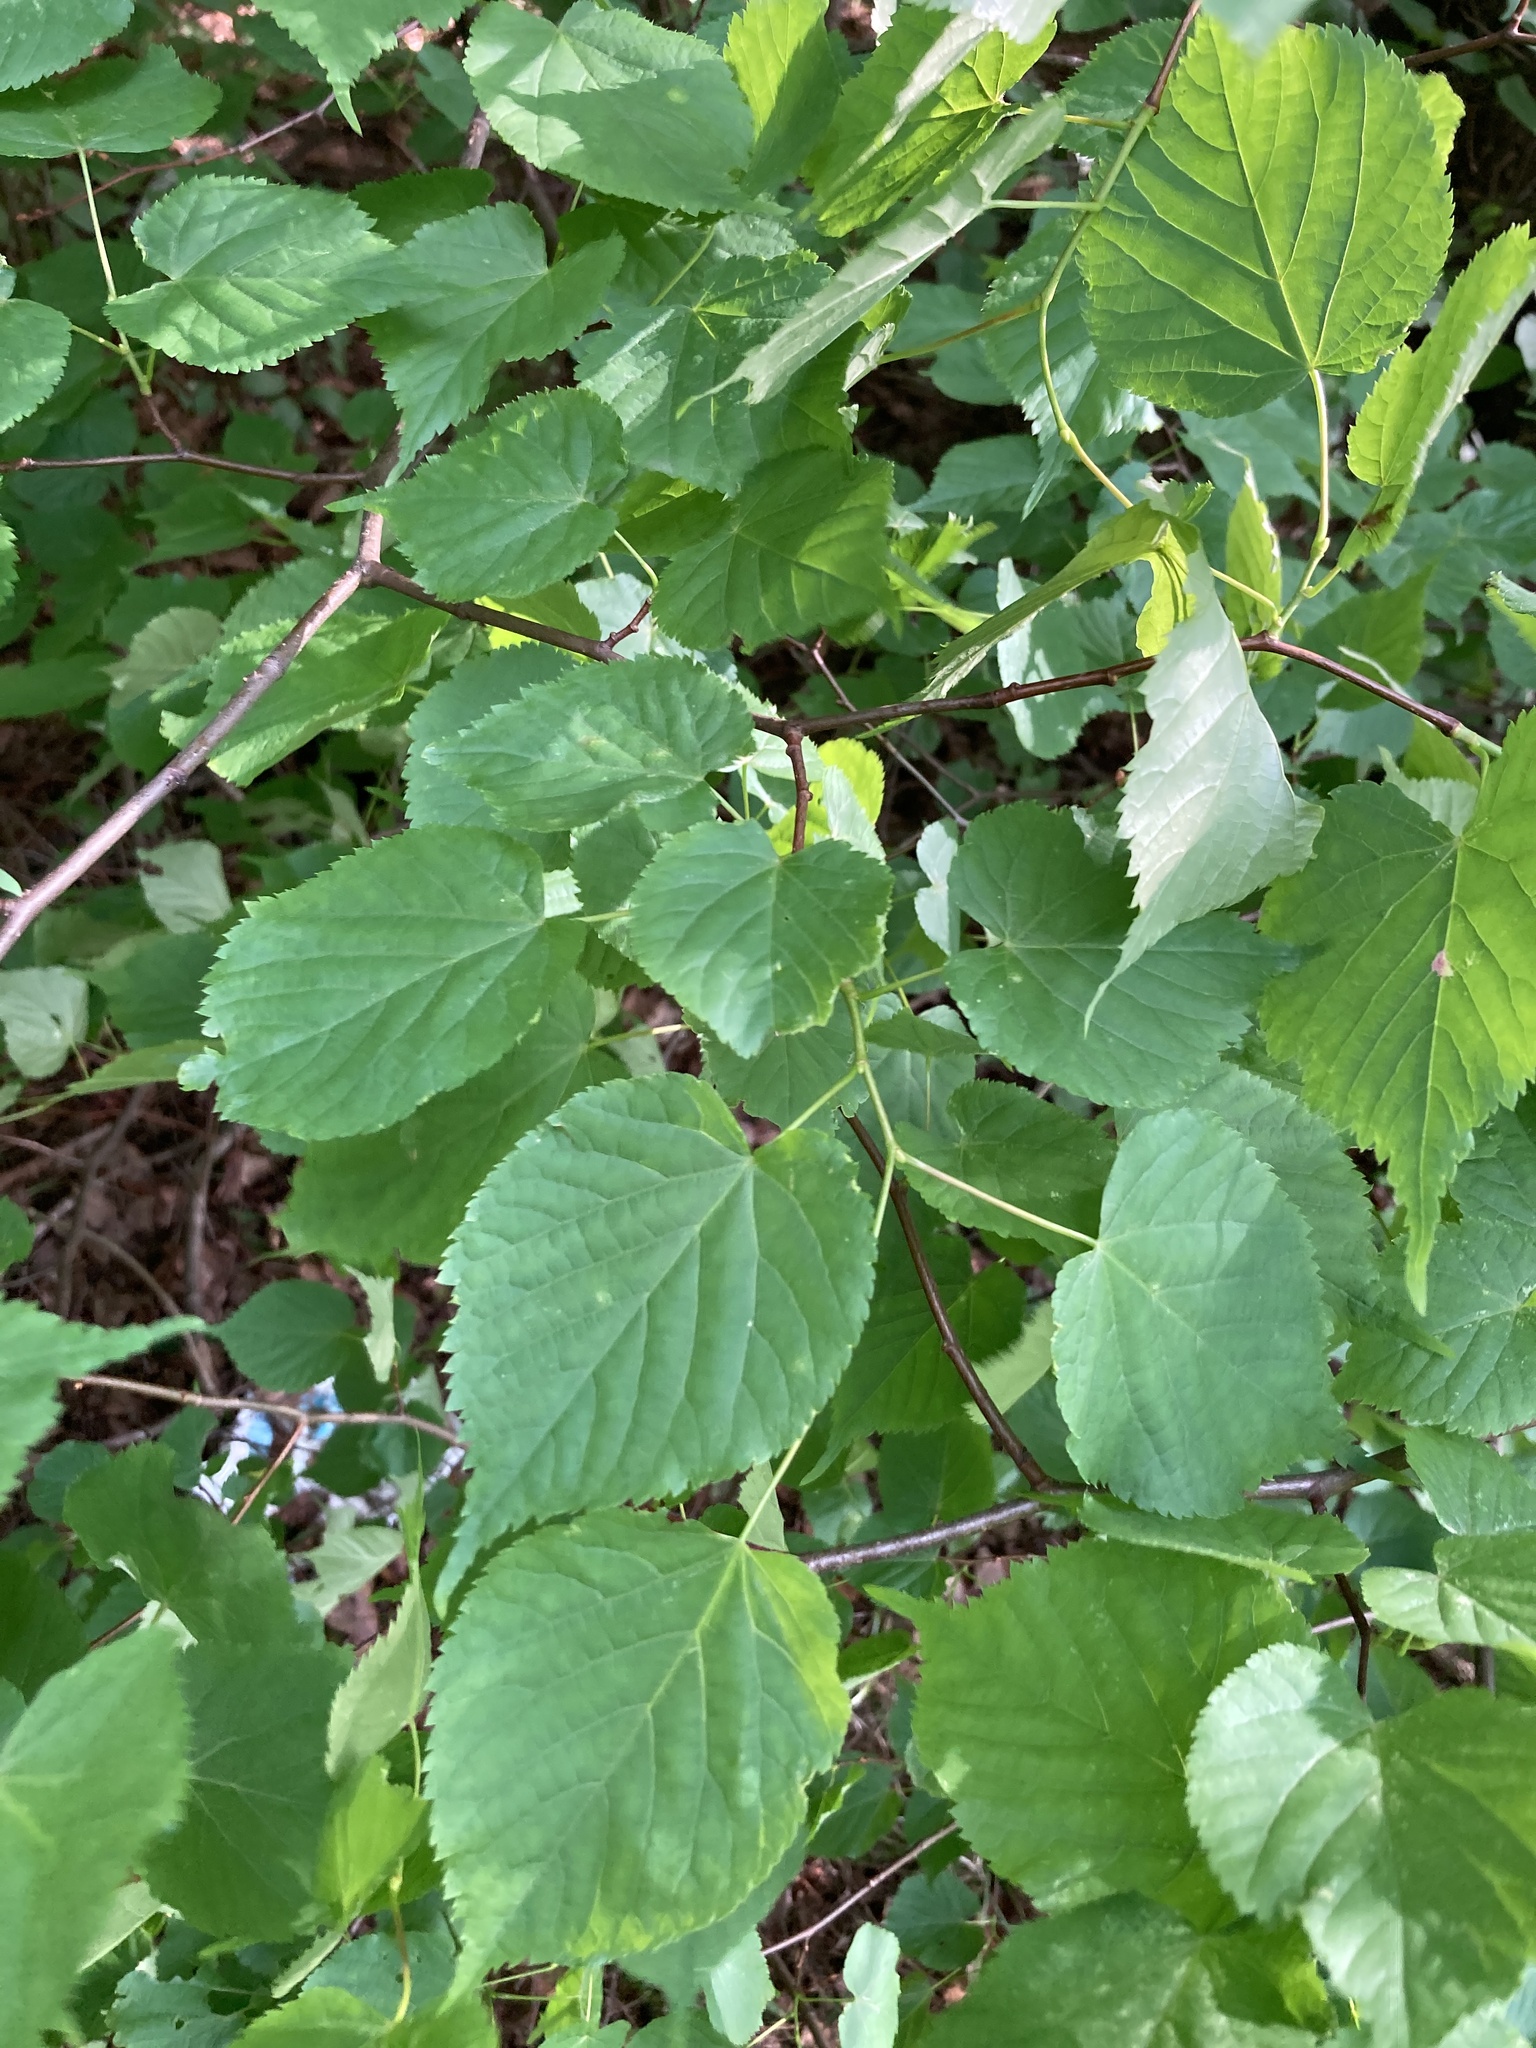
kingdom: Plantae
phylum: Tracheophyta
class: Magnoliopsida
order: Malvales
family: Malvaceae
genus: Tilia
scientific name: Tilia cordata
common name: Small-leaved lime
